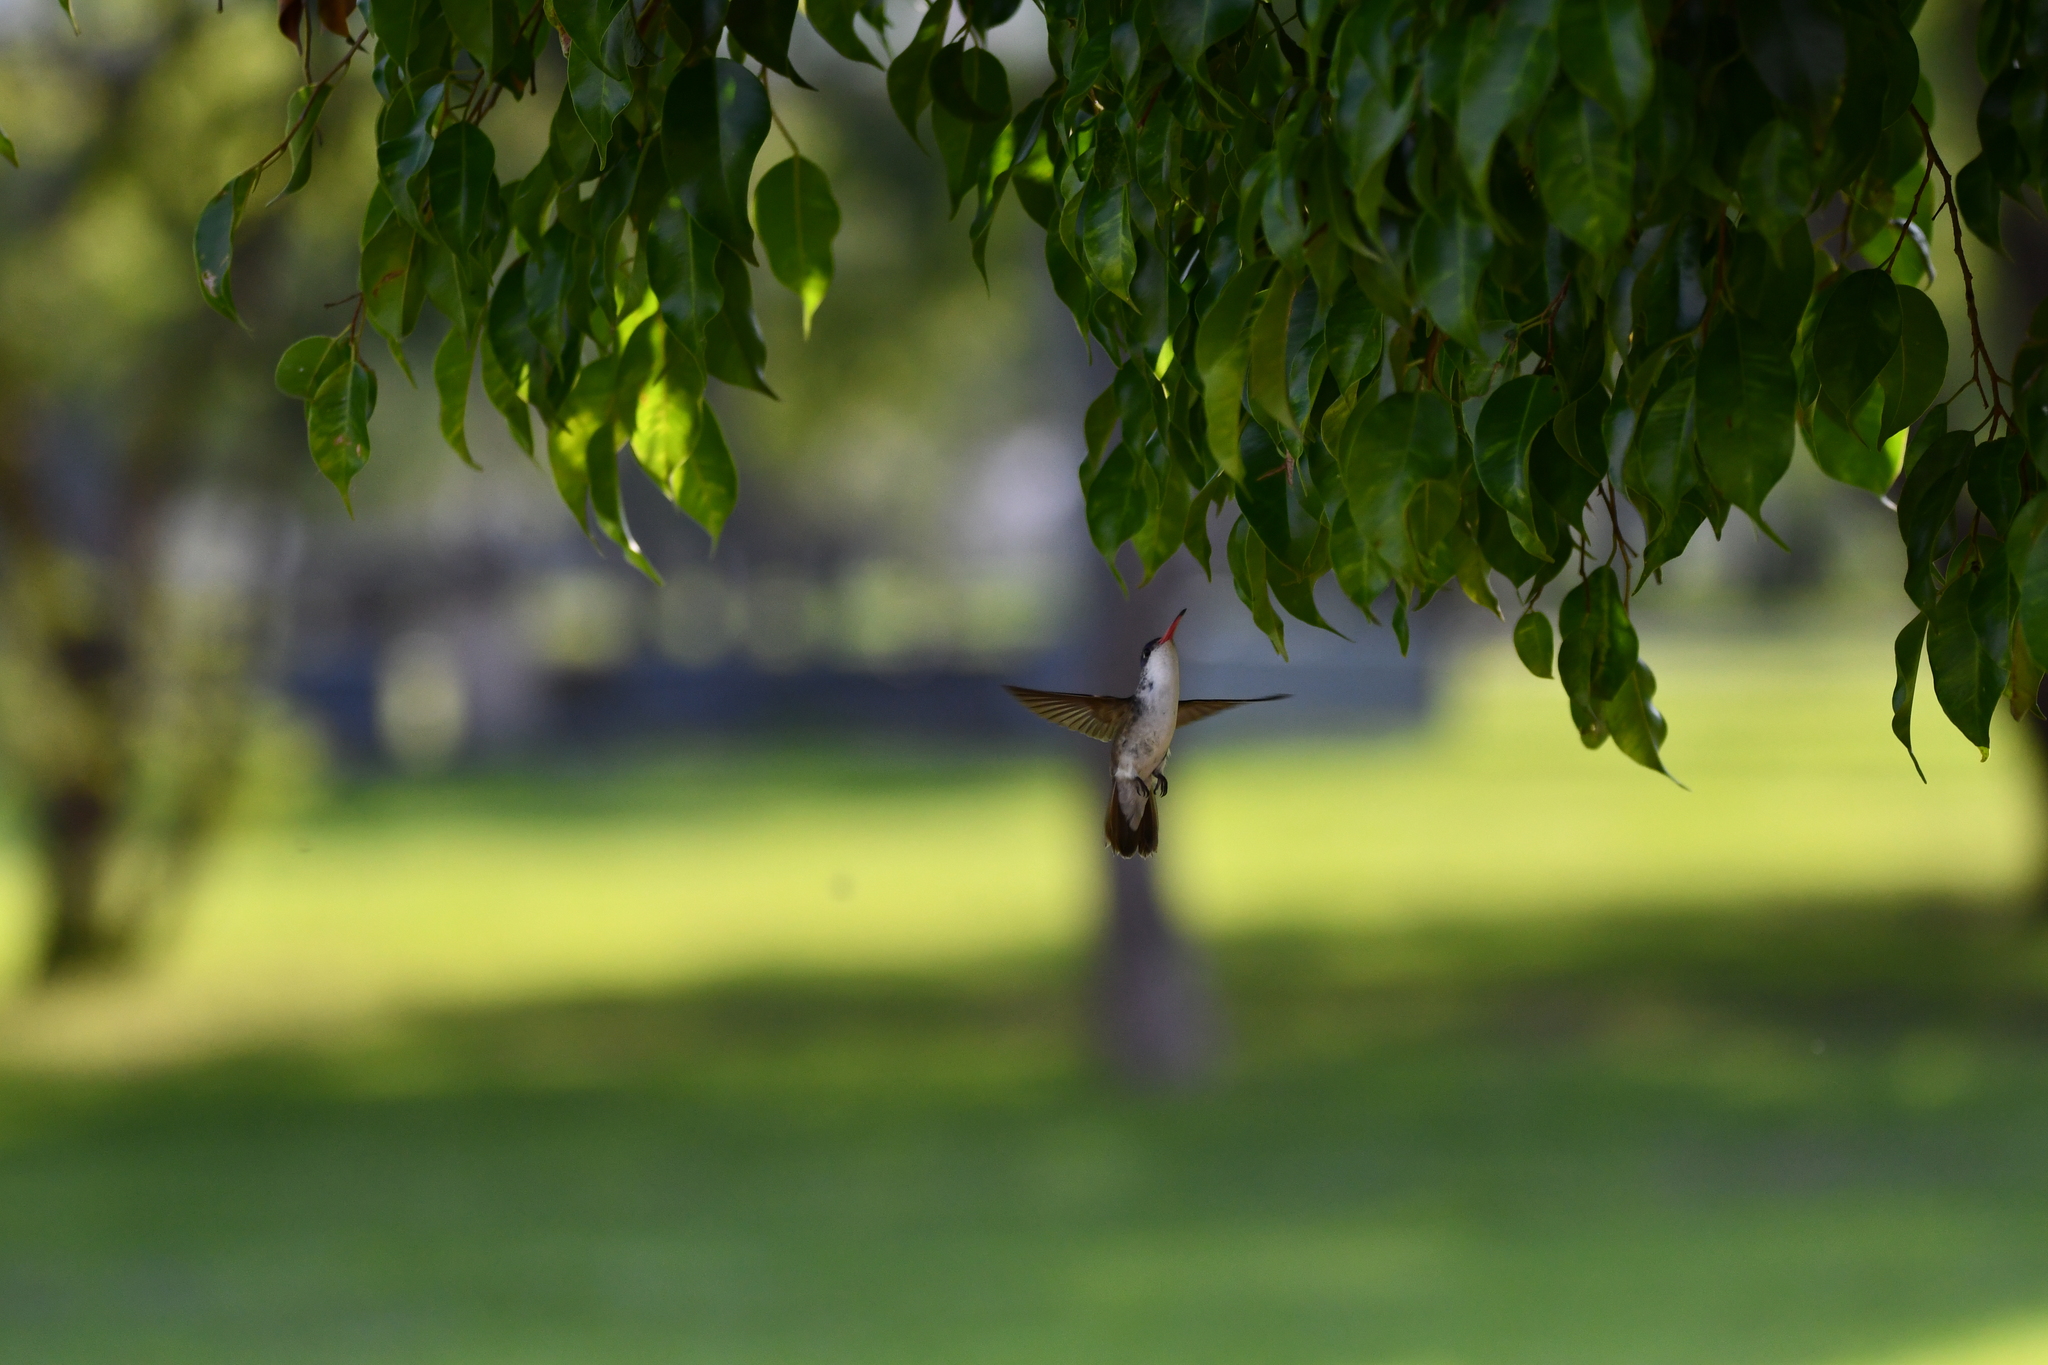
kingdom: Animalia
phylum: Chordata
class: Aves
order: Apodiformes
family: Trochilidae
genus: Leucolia
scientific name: Leucolia violiceps
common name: Violet-crowned hummingbird
